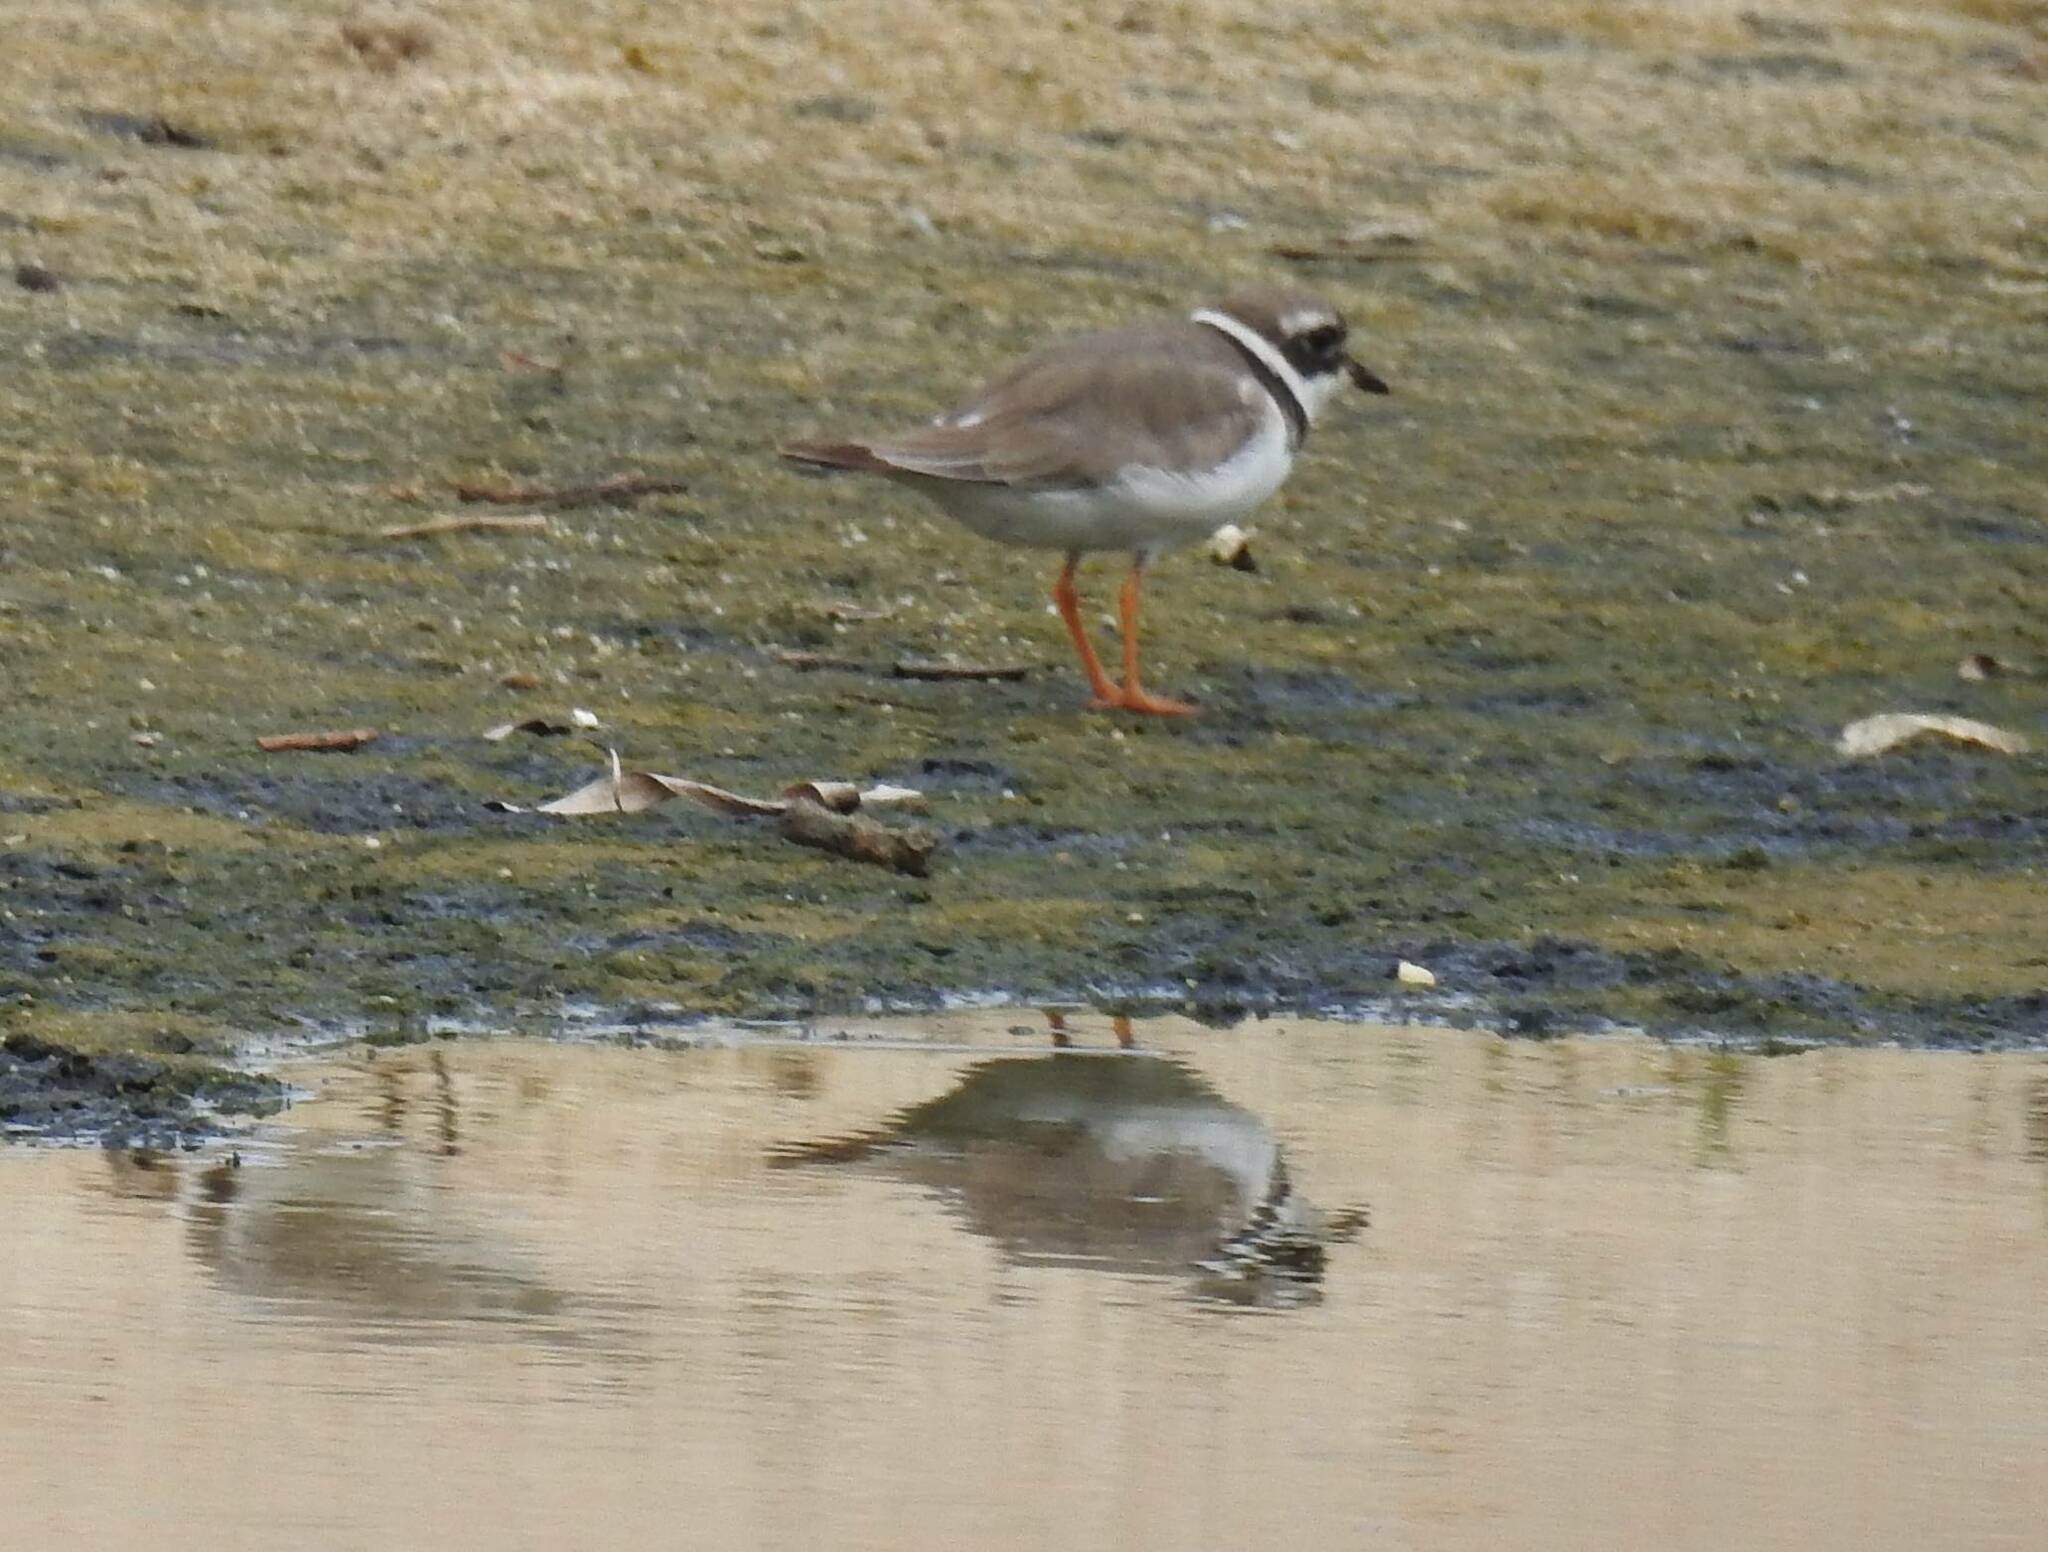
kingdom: Animalia
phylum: Chordata
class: Aves
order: Charadriiformes
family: Charadriidae
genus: Charadrius
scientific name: Charadrius hiaticula
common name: Common ringed plover
